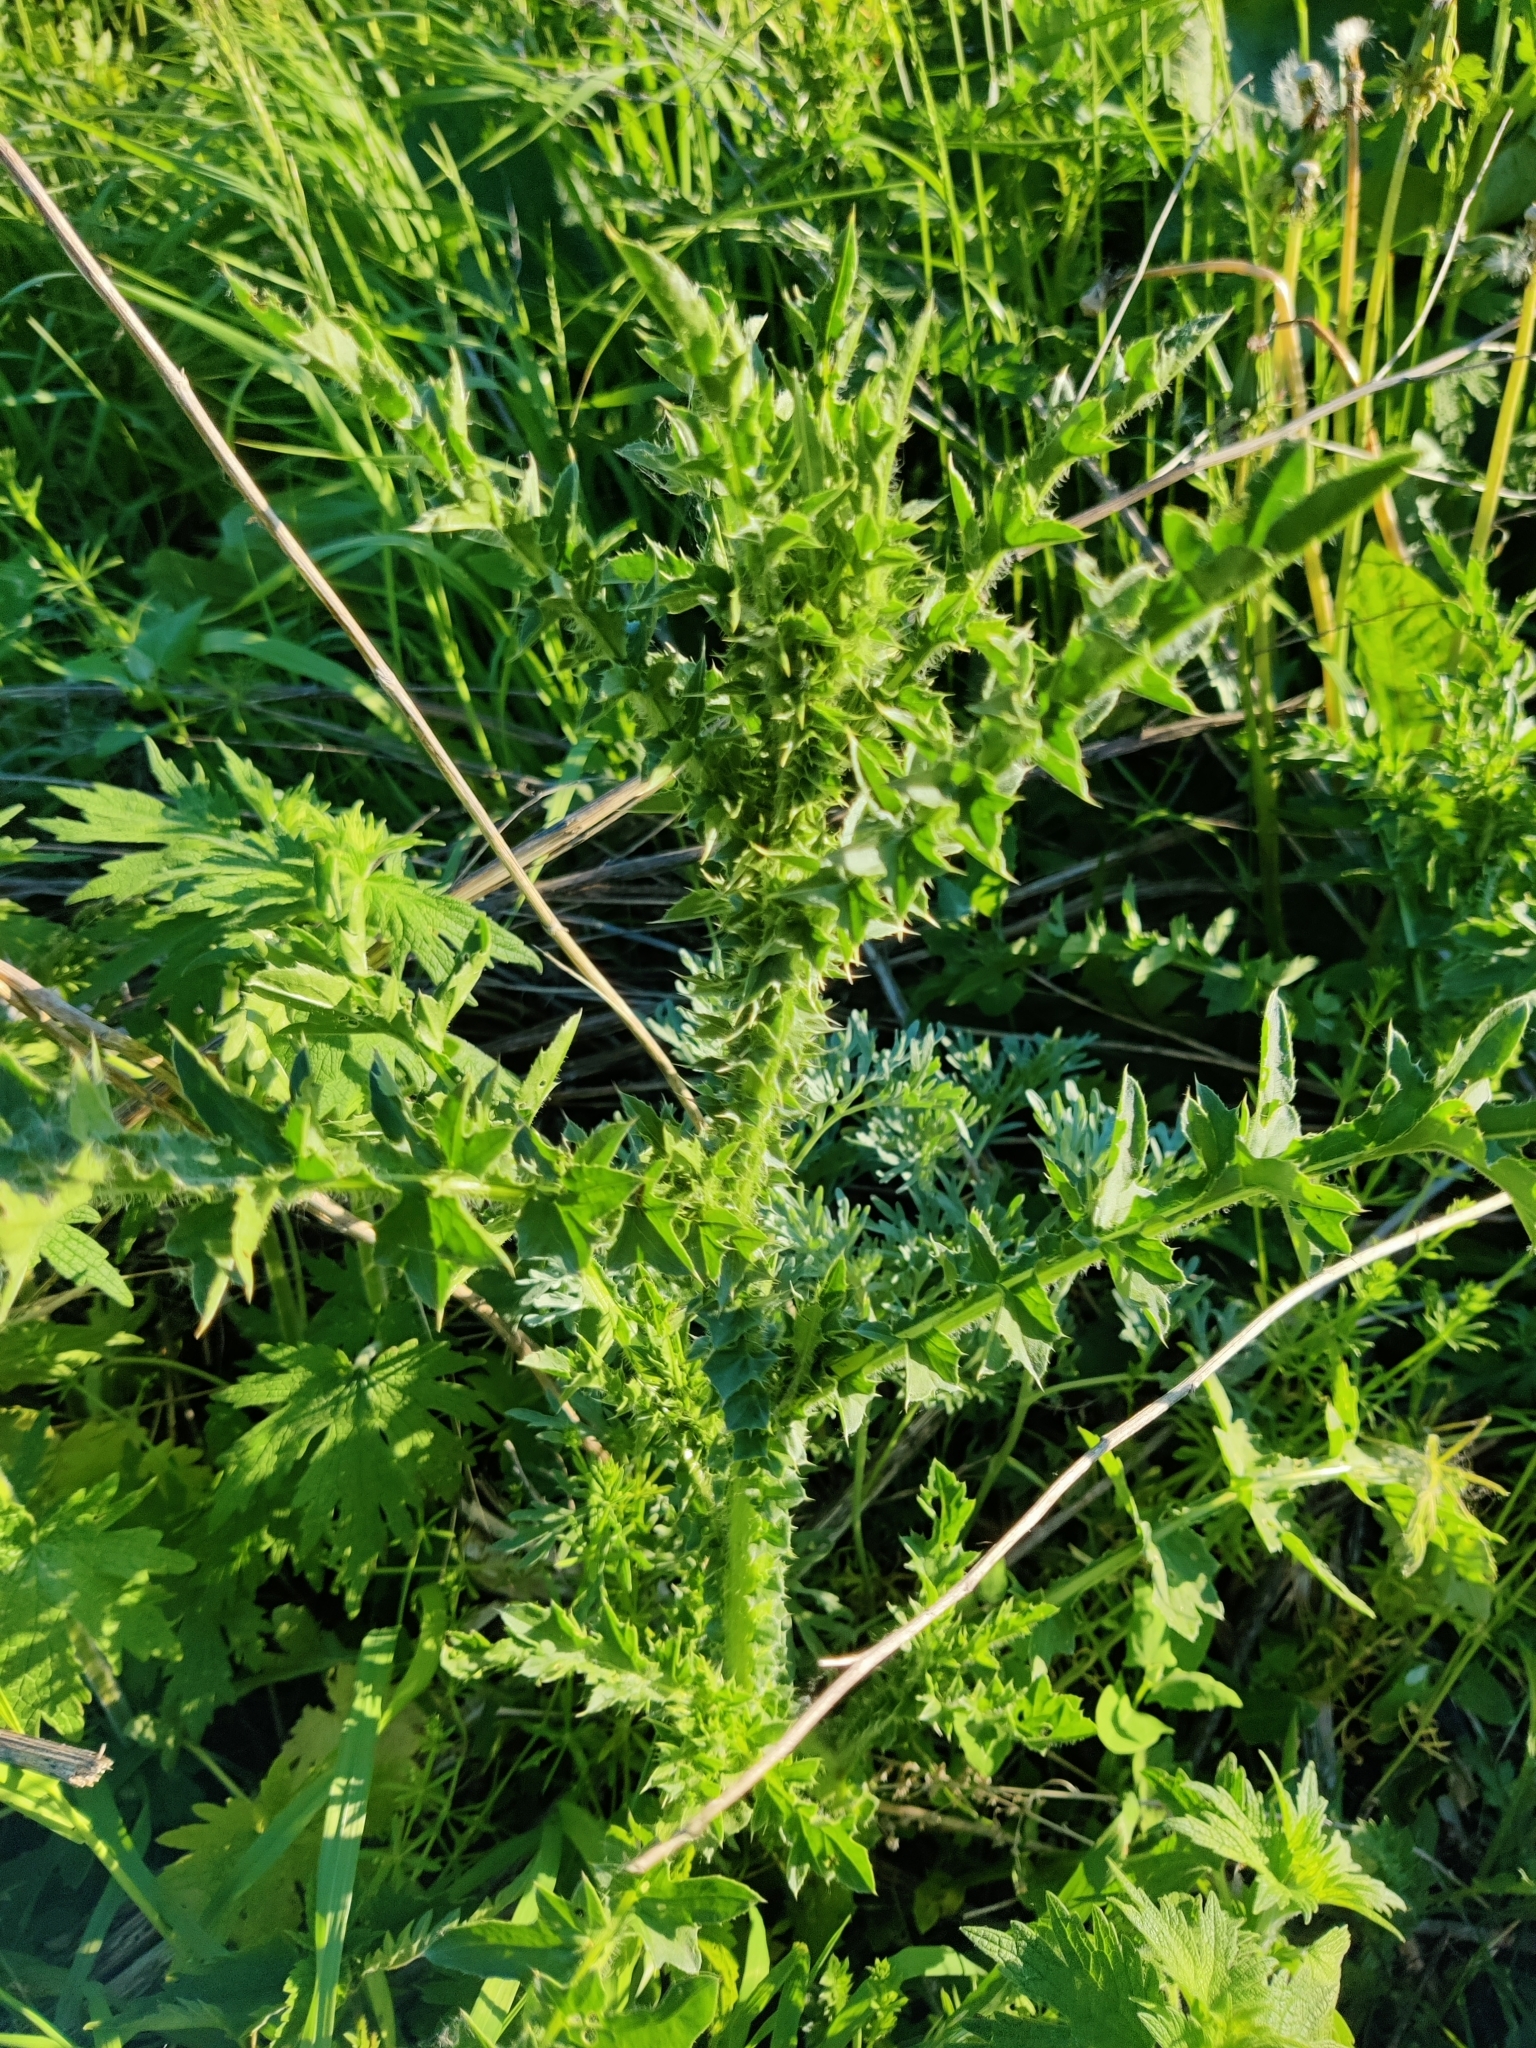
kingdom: Plantae
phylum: Tracheophyta
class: Magnoliopsida
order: Asterales
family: Asteraceae
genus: Carduus
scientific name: Carduus acanthoides
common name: Plumeless thistle
